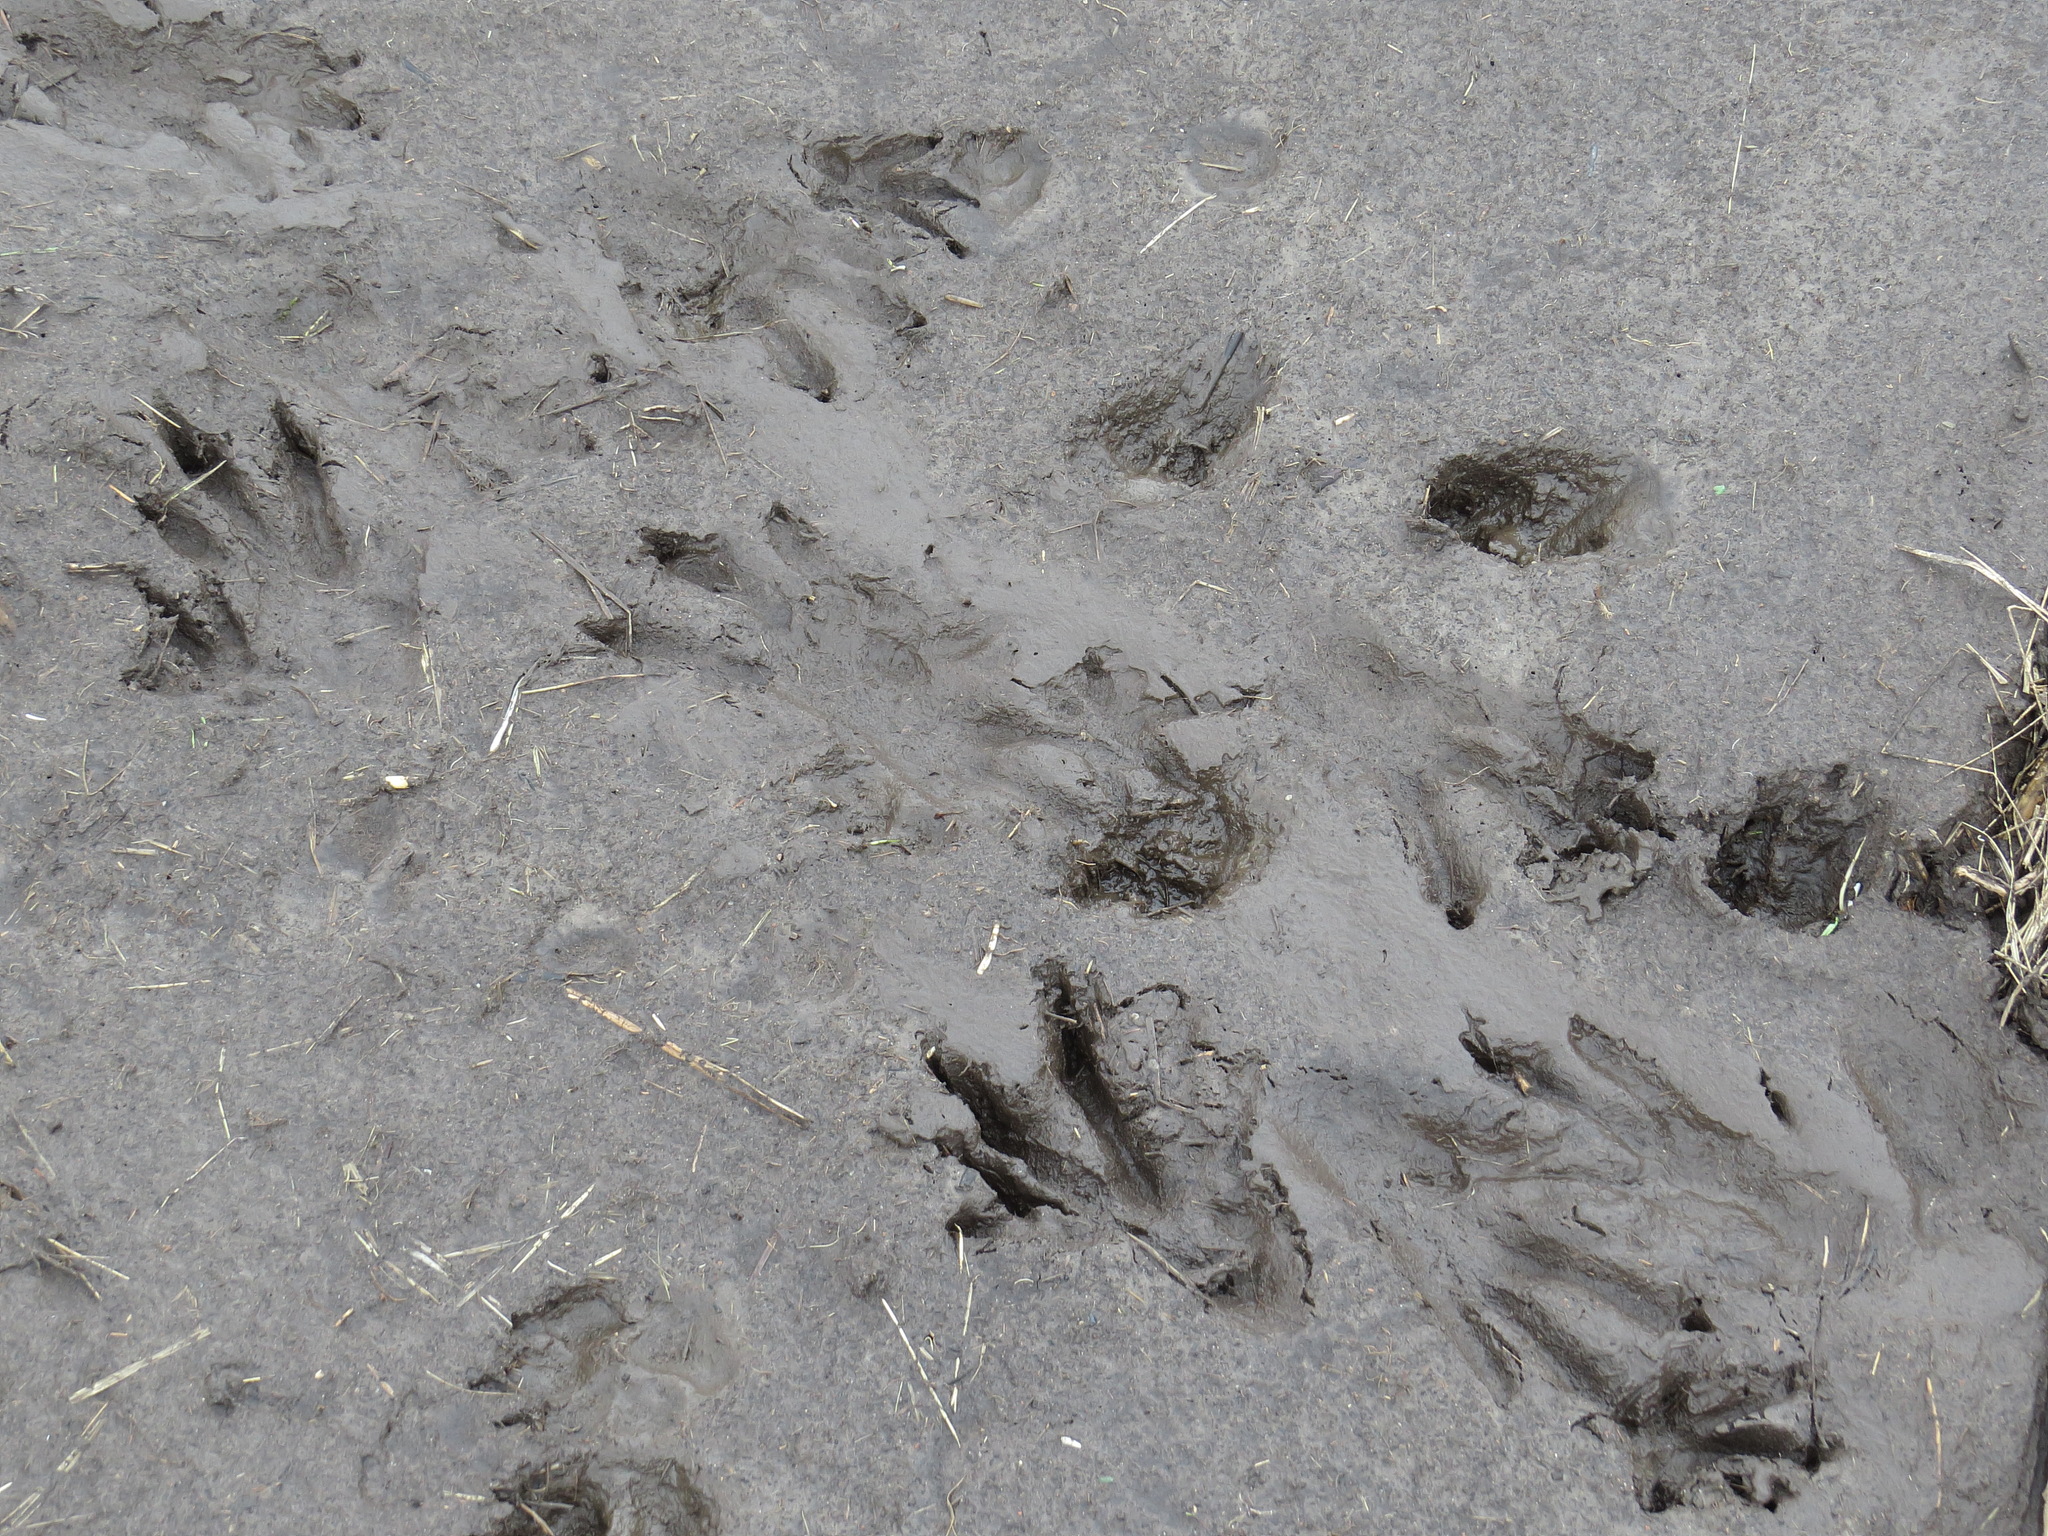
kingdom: Animalia
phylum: Chordata
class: Mammalia
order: Rodentia
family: Castoridae
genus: Castor
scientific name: Castor fiber
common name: Eurasian beaver
